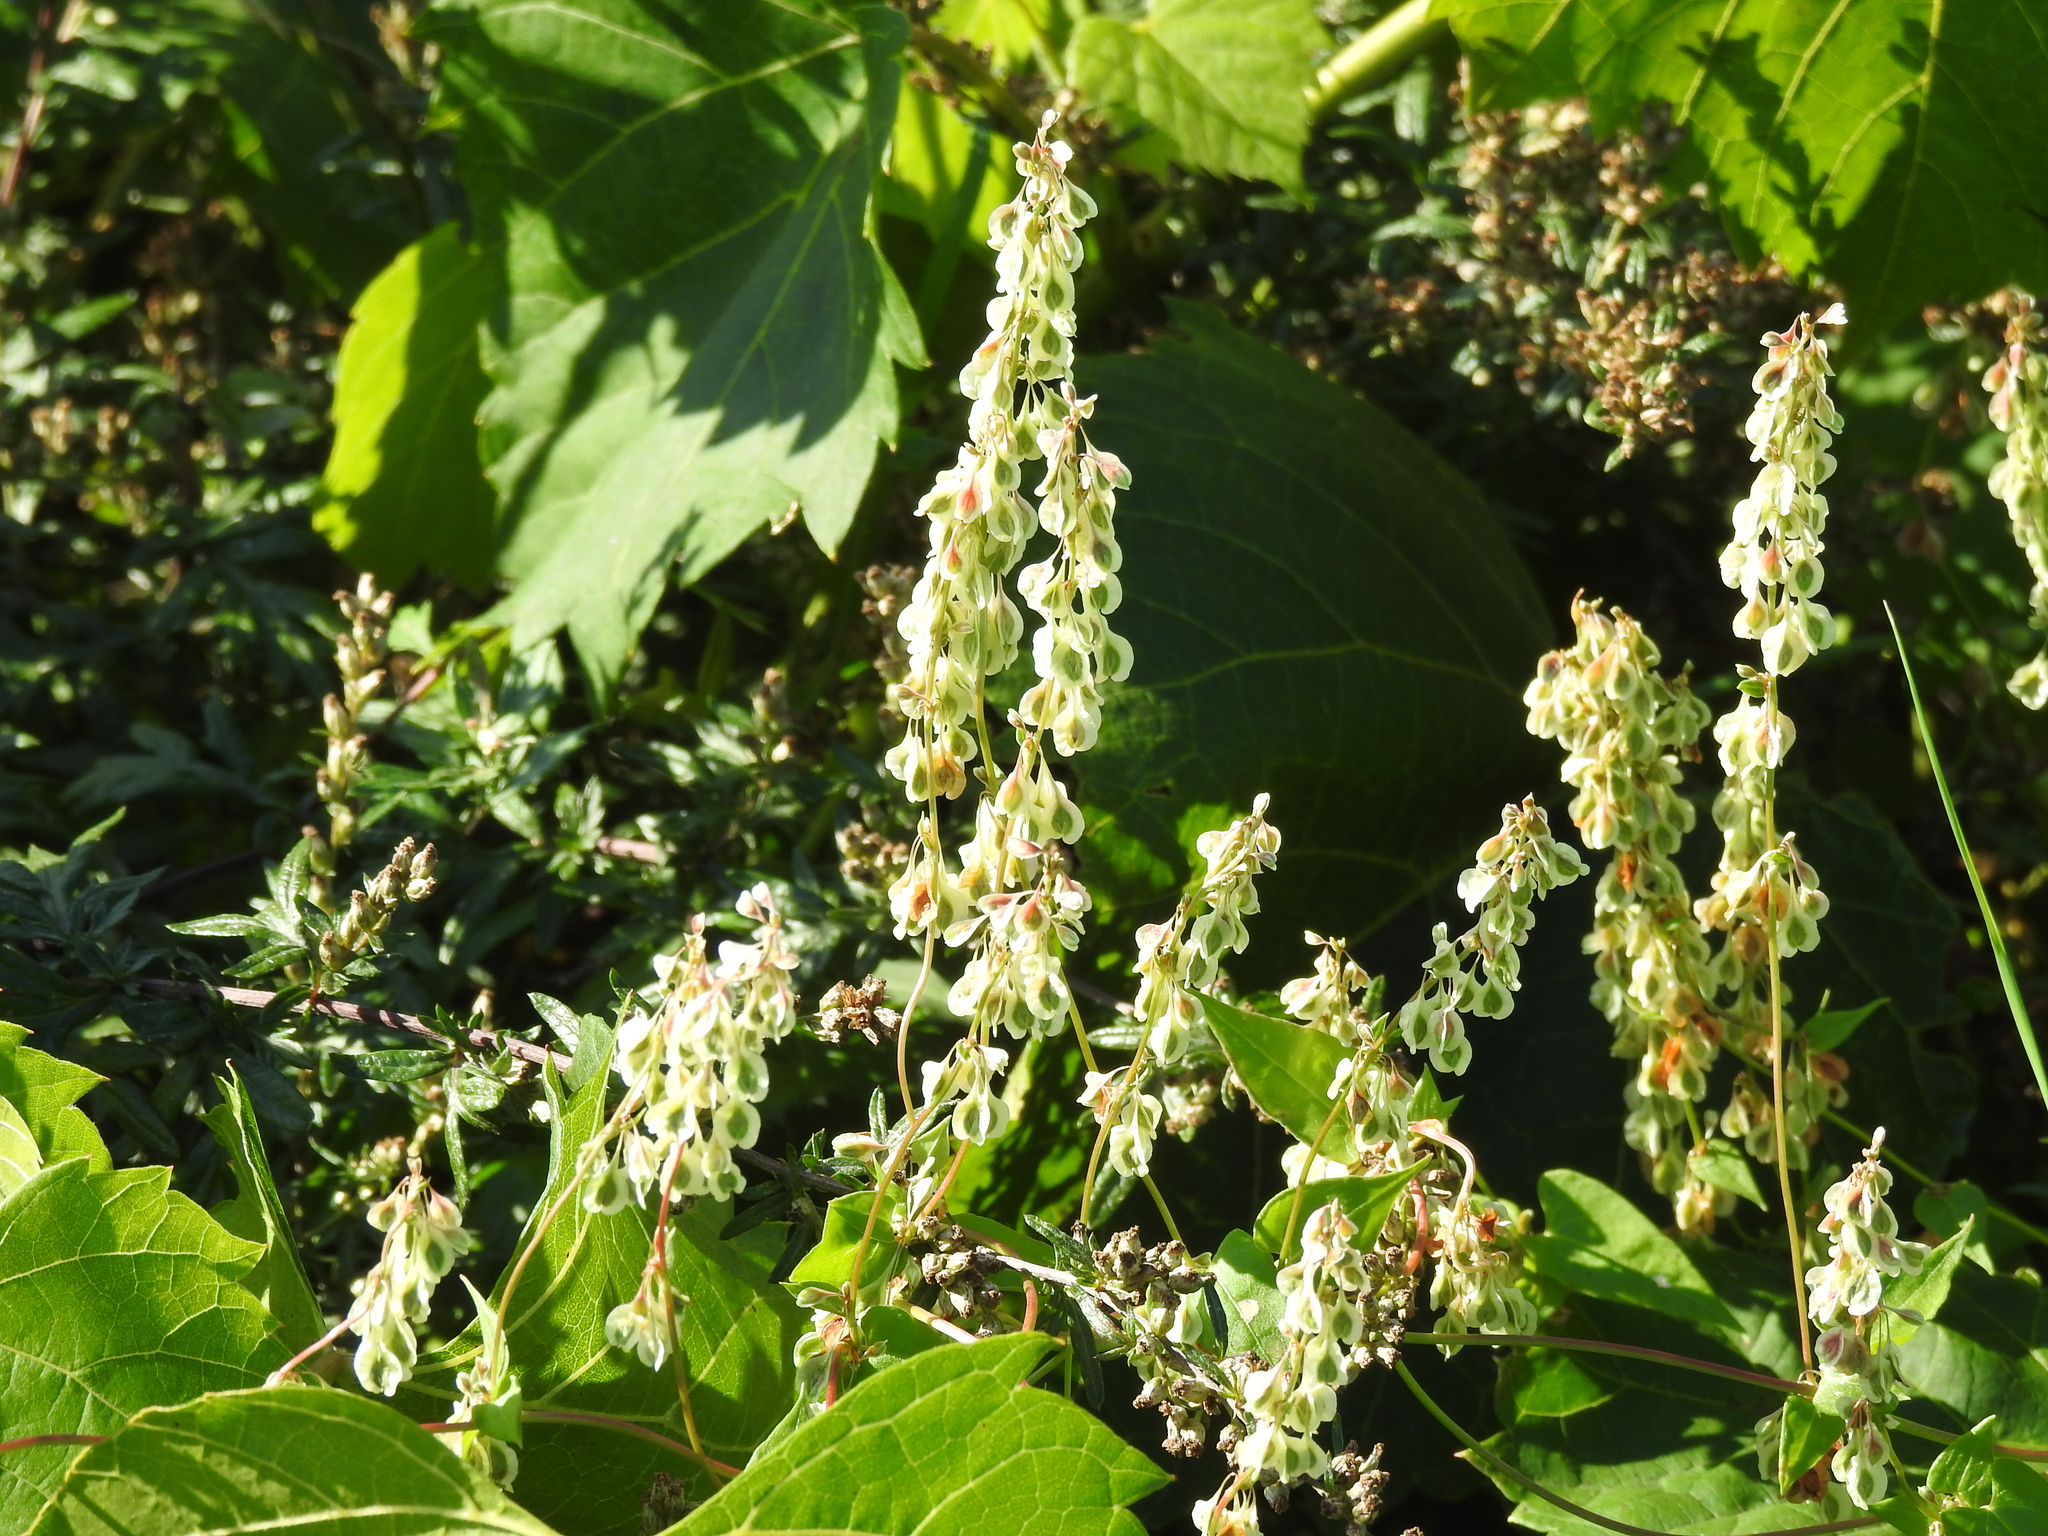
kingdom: Plantae
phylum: Tracheophyta
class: Magnoliopsida
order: Caryophyllales
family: Polygonaceae
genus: Fallopia
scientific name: Fallopia dumetorum
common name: Copse-bindweed
